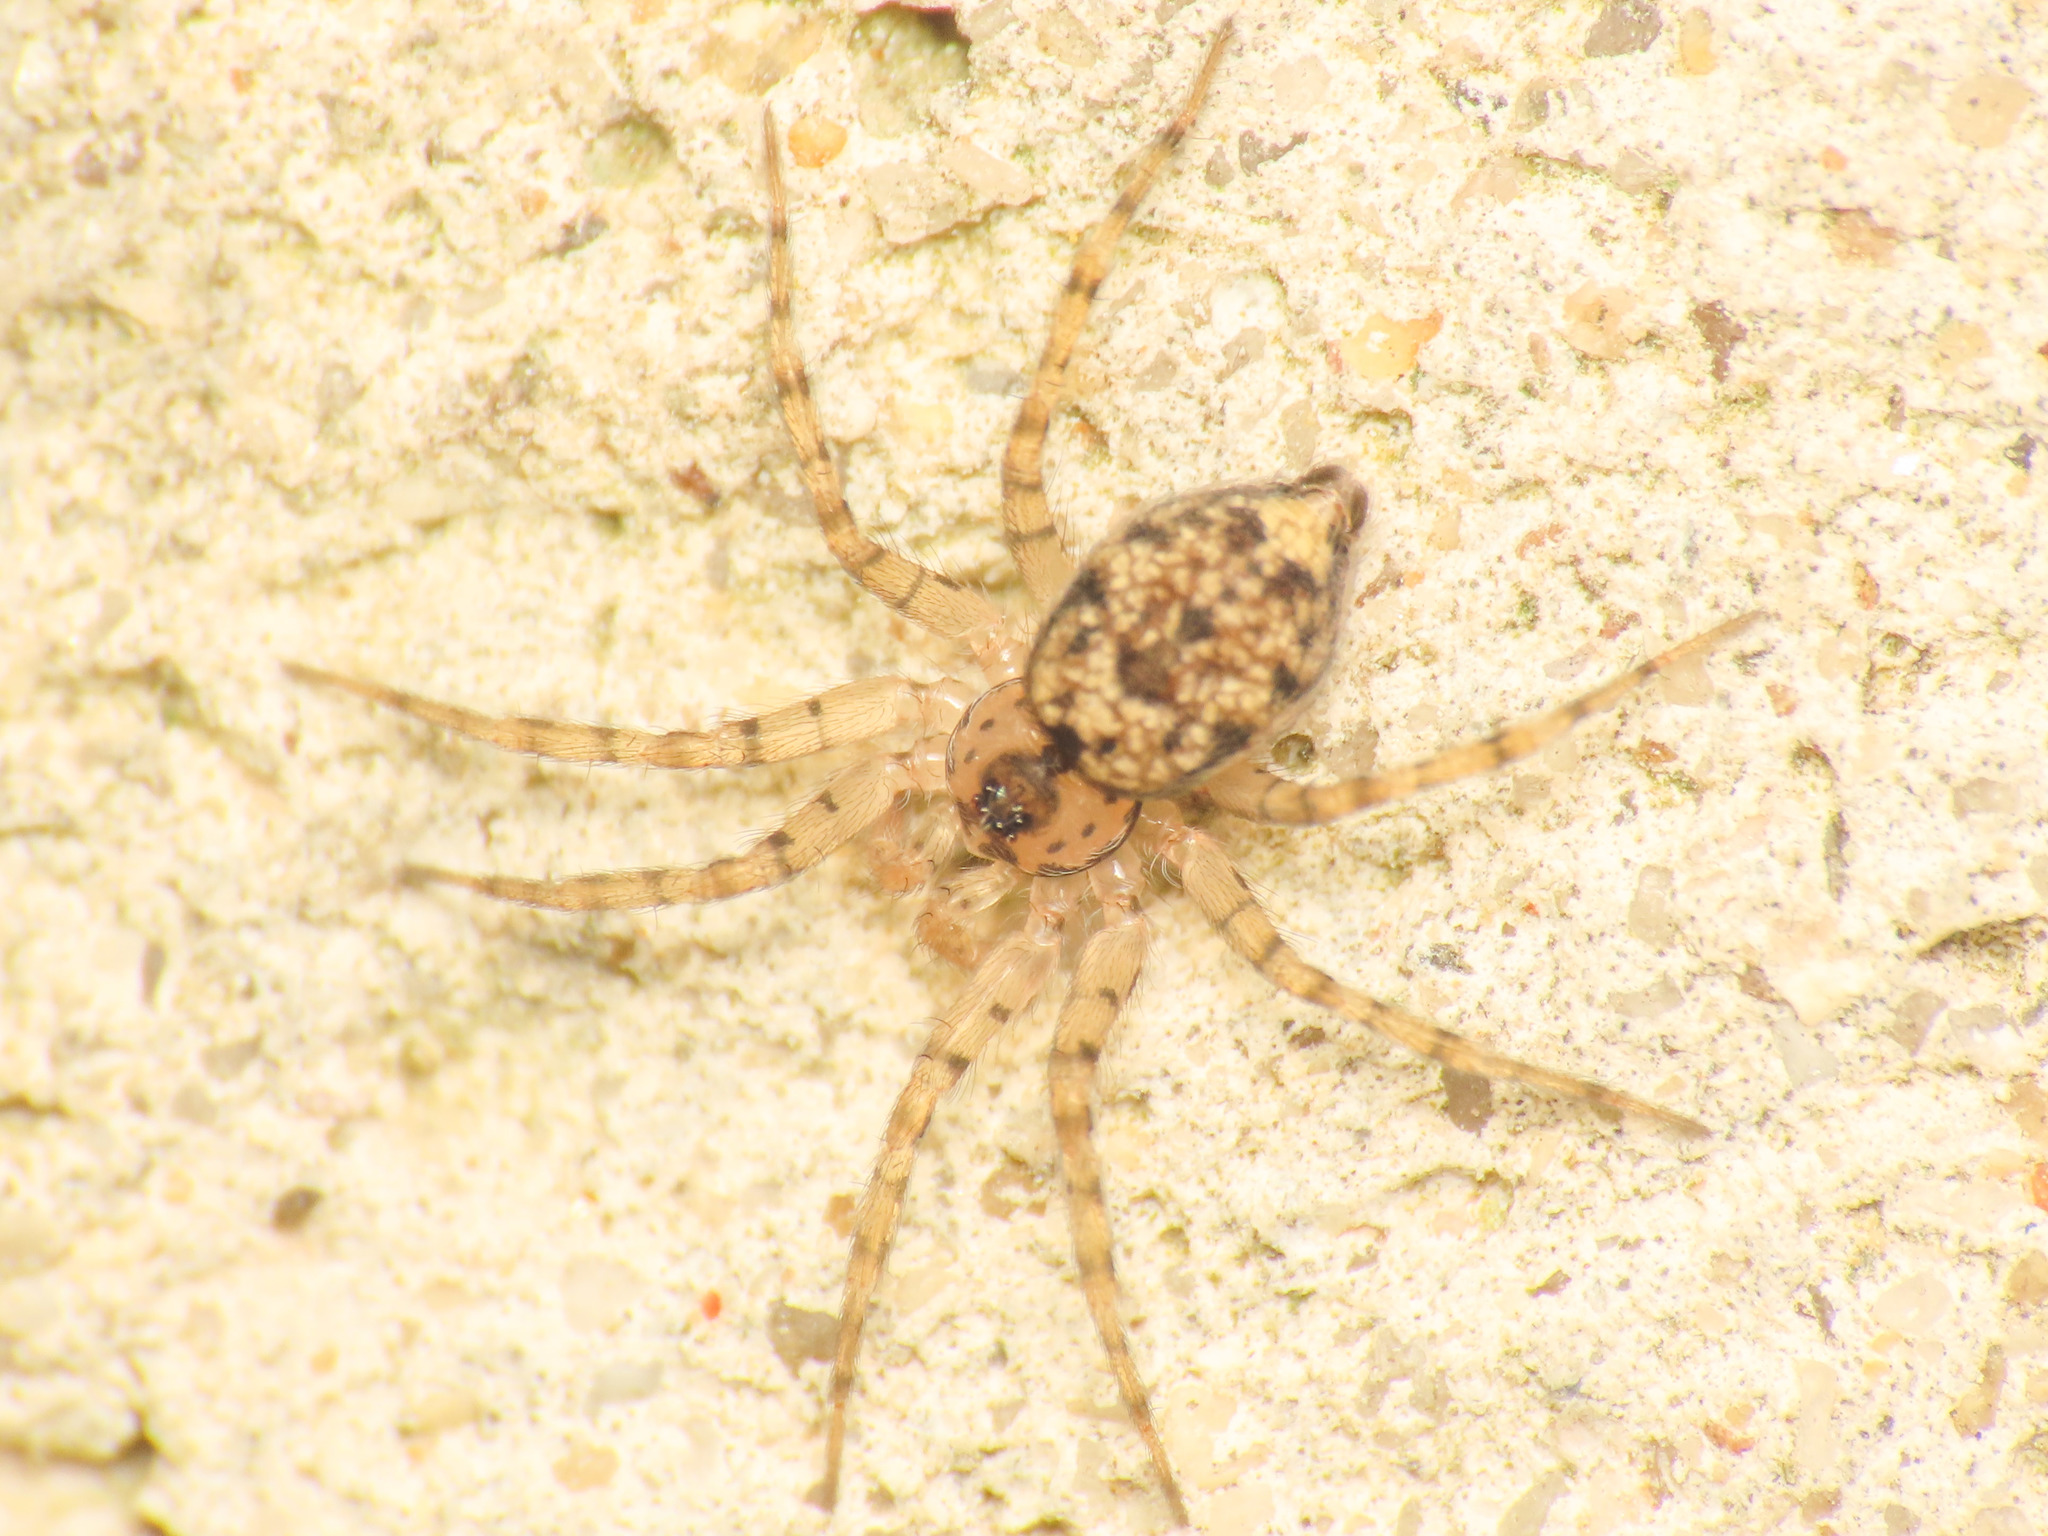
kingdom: Animalia
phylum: Arthropoda
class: Arachnida
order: Araneae
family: Oecobiidae
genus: Oecobius
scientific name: Oecobius navus
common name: Flatmesh weaver
